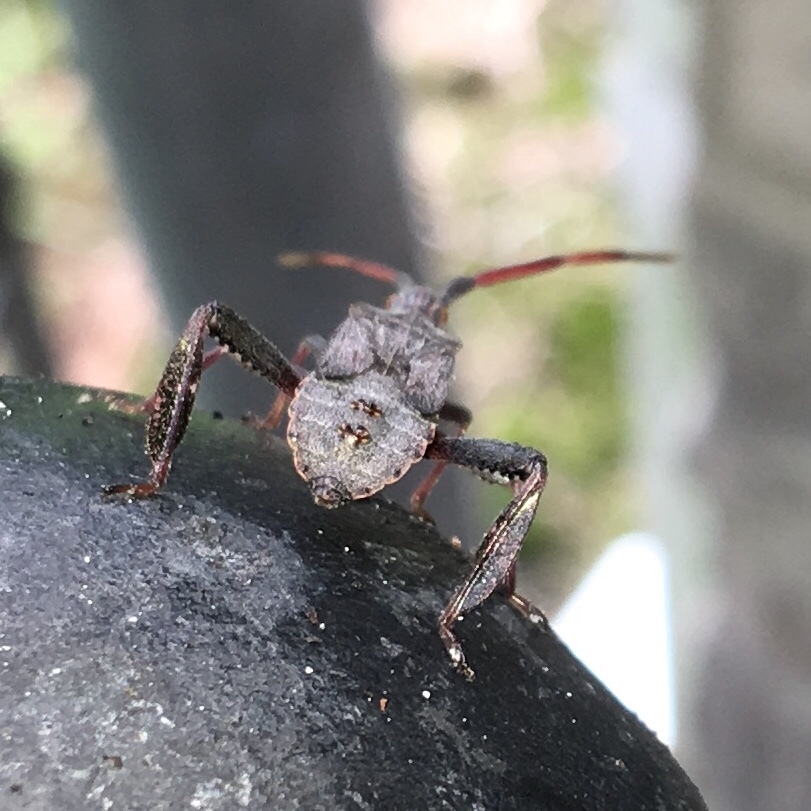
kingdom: Animalia
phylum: Arthropoda
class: Insecta
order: Hemiptera
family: Coreidae
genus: Leptoglossus
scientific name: Leptoglossus corculus
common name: Southern pine seed bug
